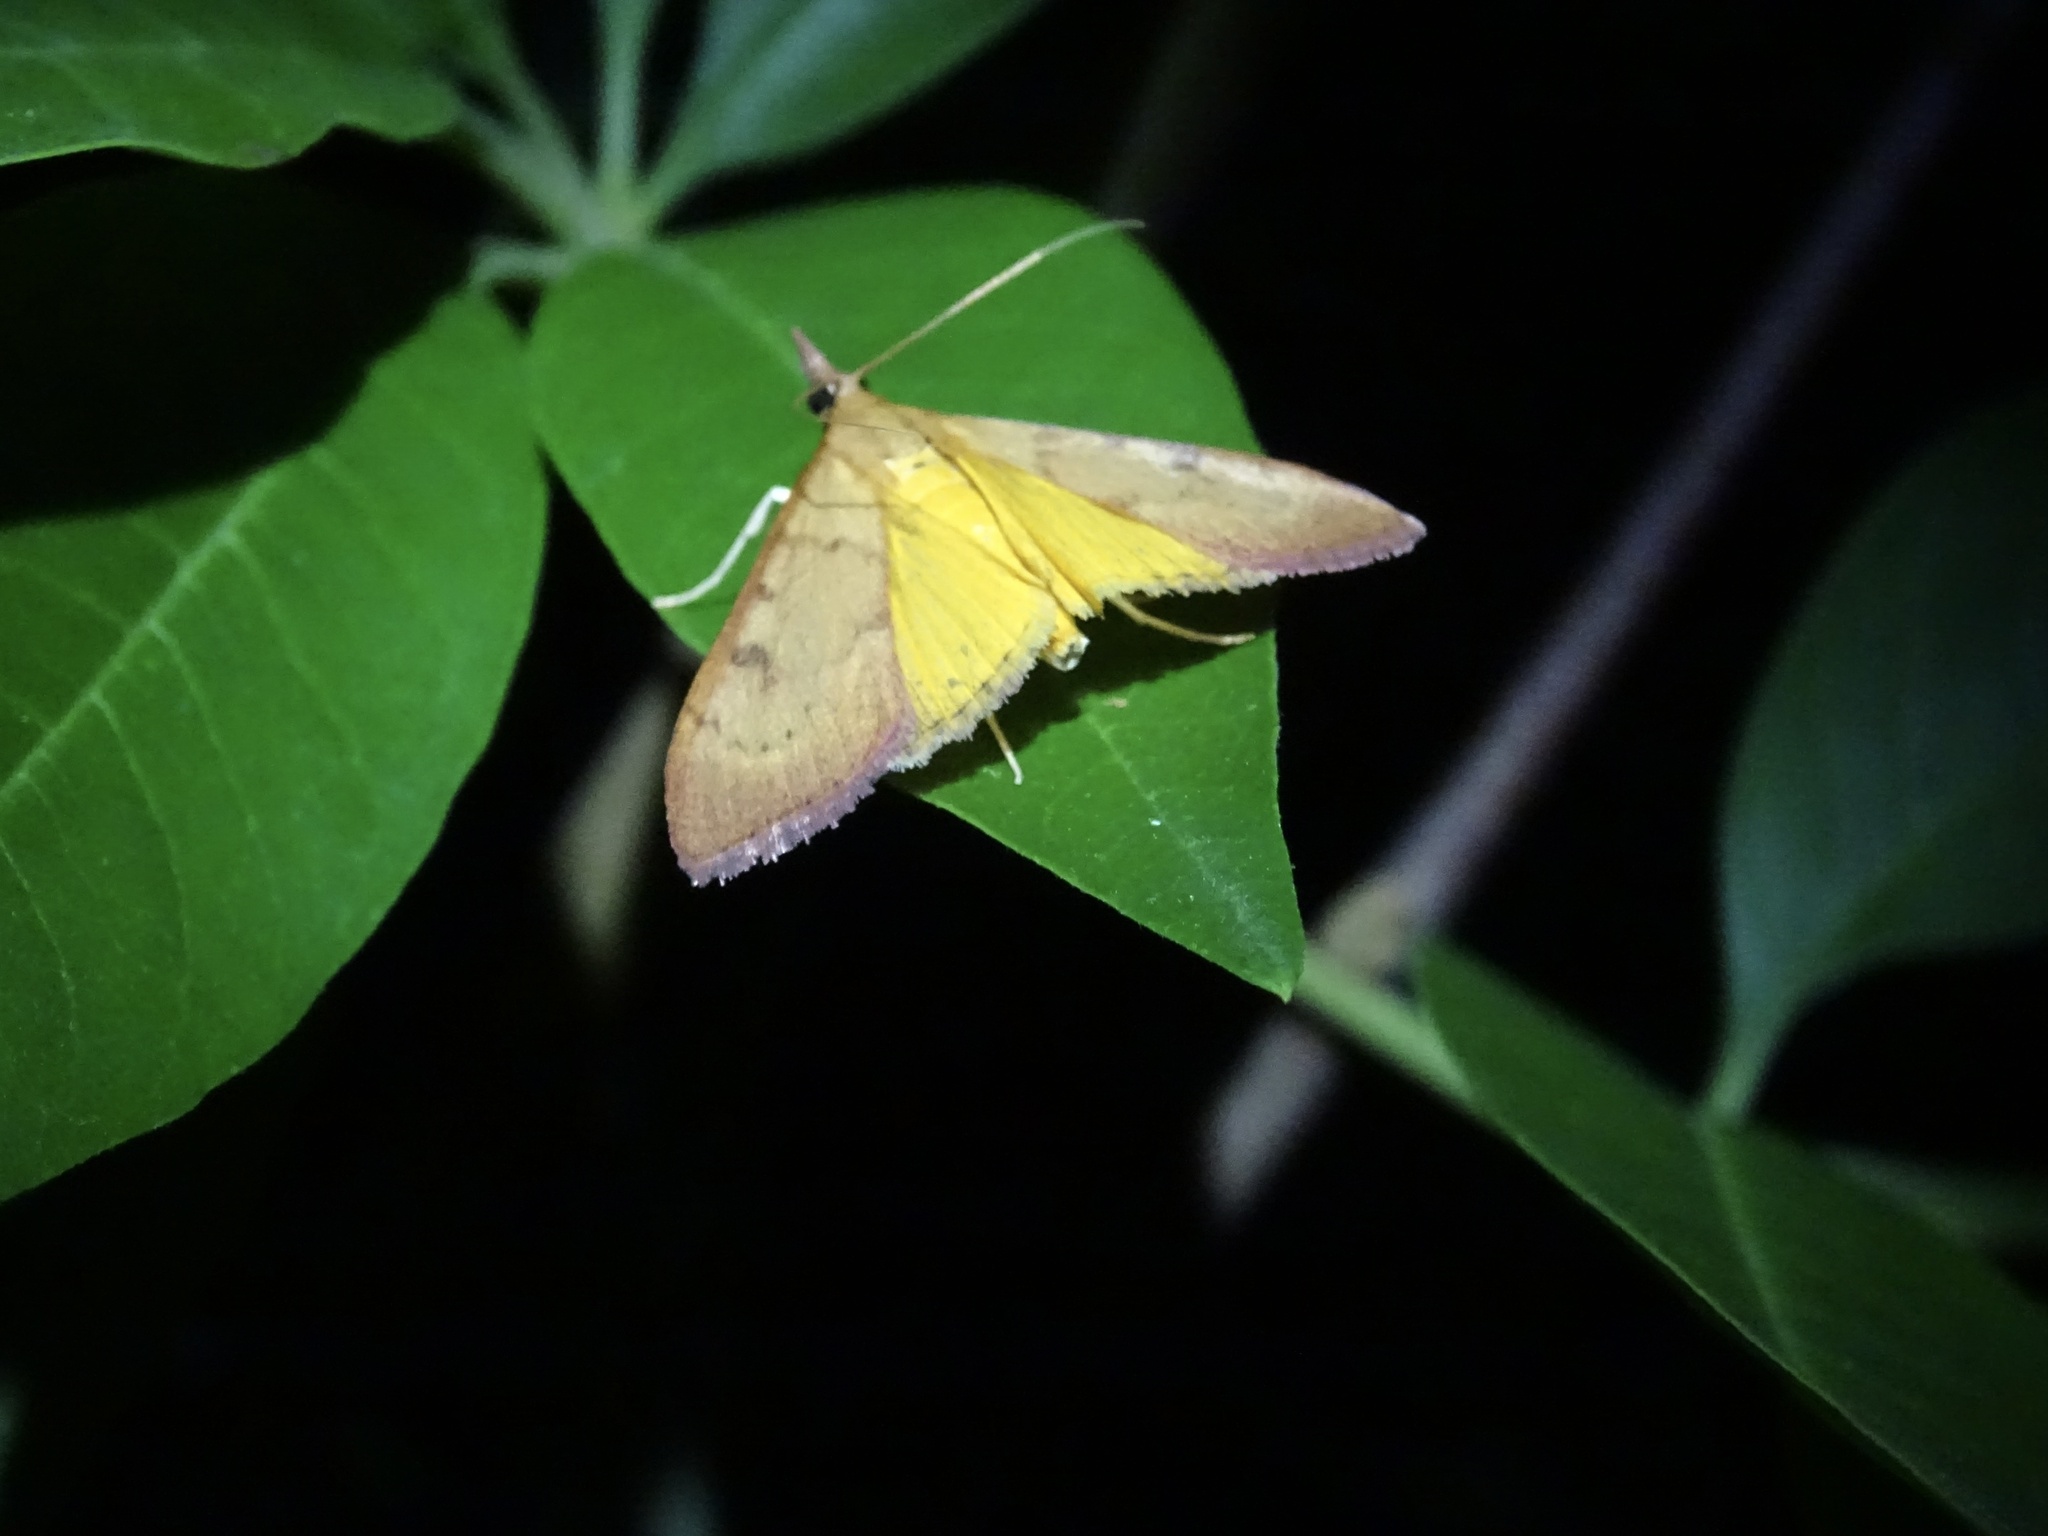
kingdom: Animalia
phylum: Arthropoda
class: Insecta
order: Lepidoptera
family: Crambidae
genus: Uresiphita
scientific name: Uresiphita reversalis
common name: Genista broom moth
